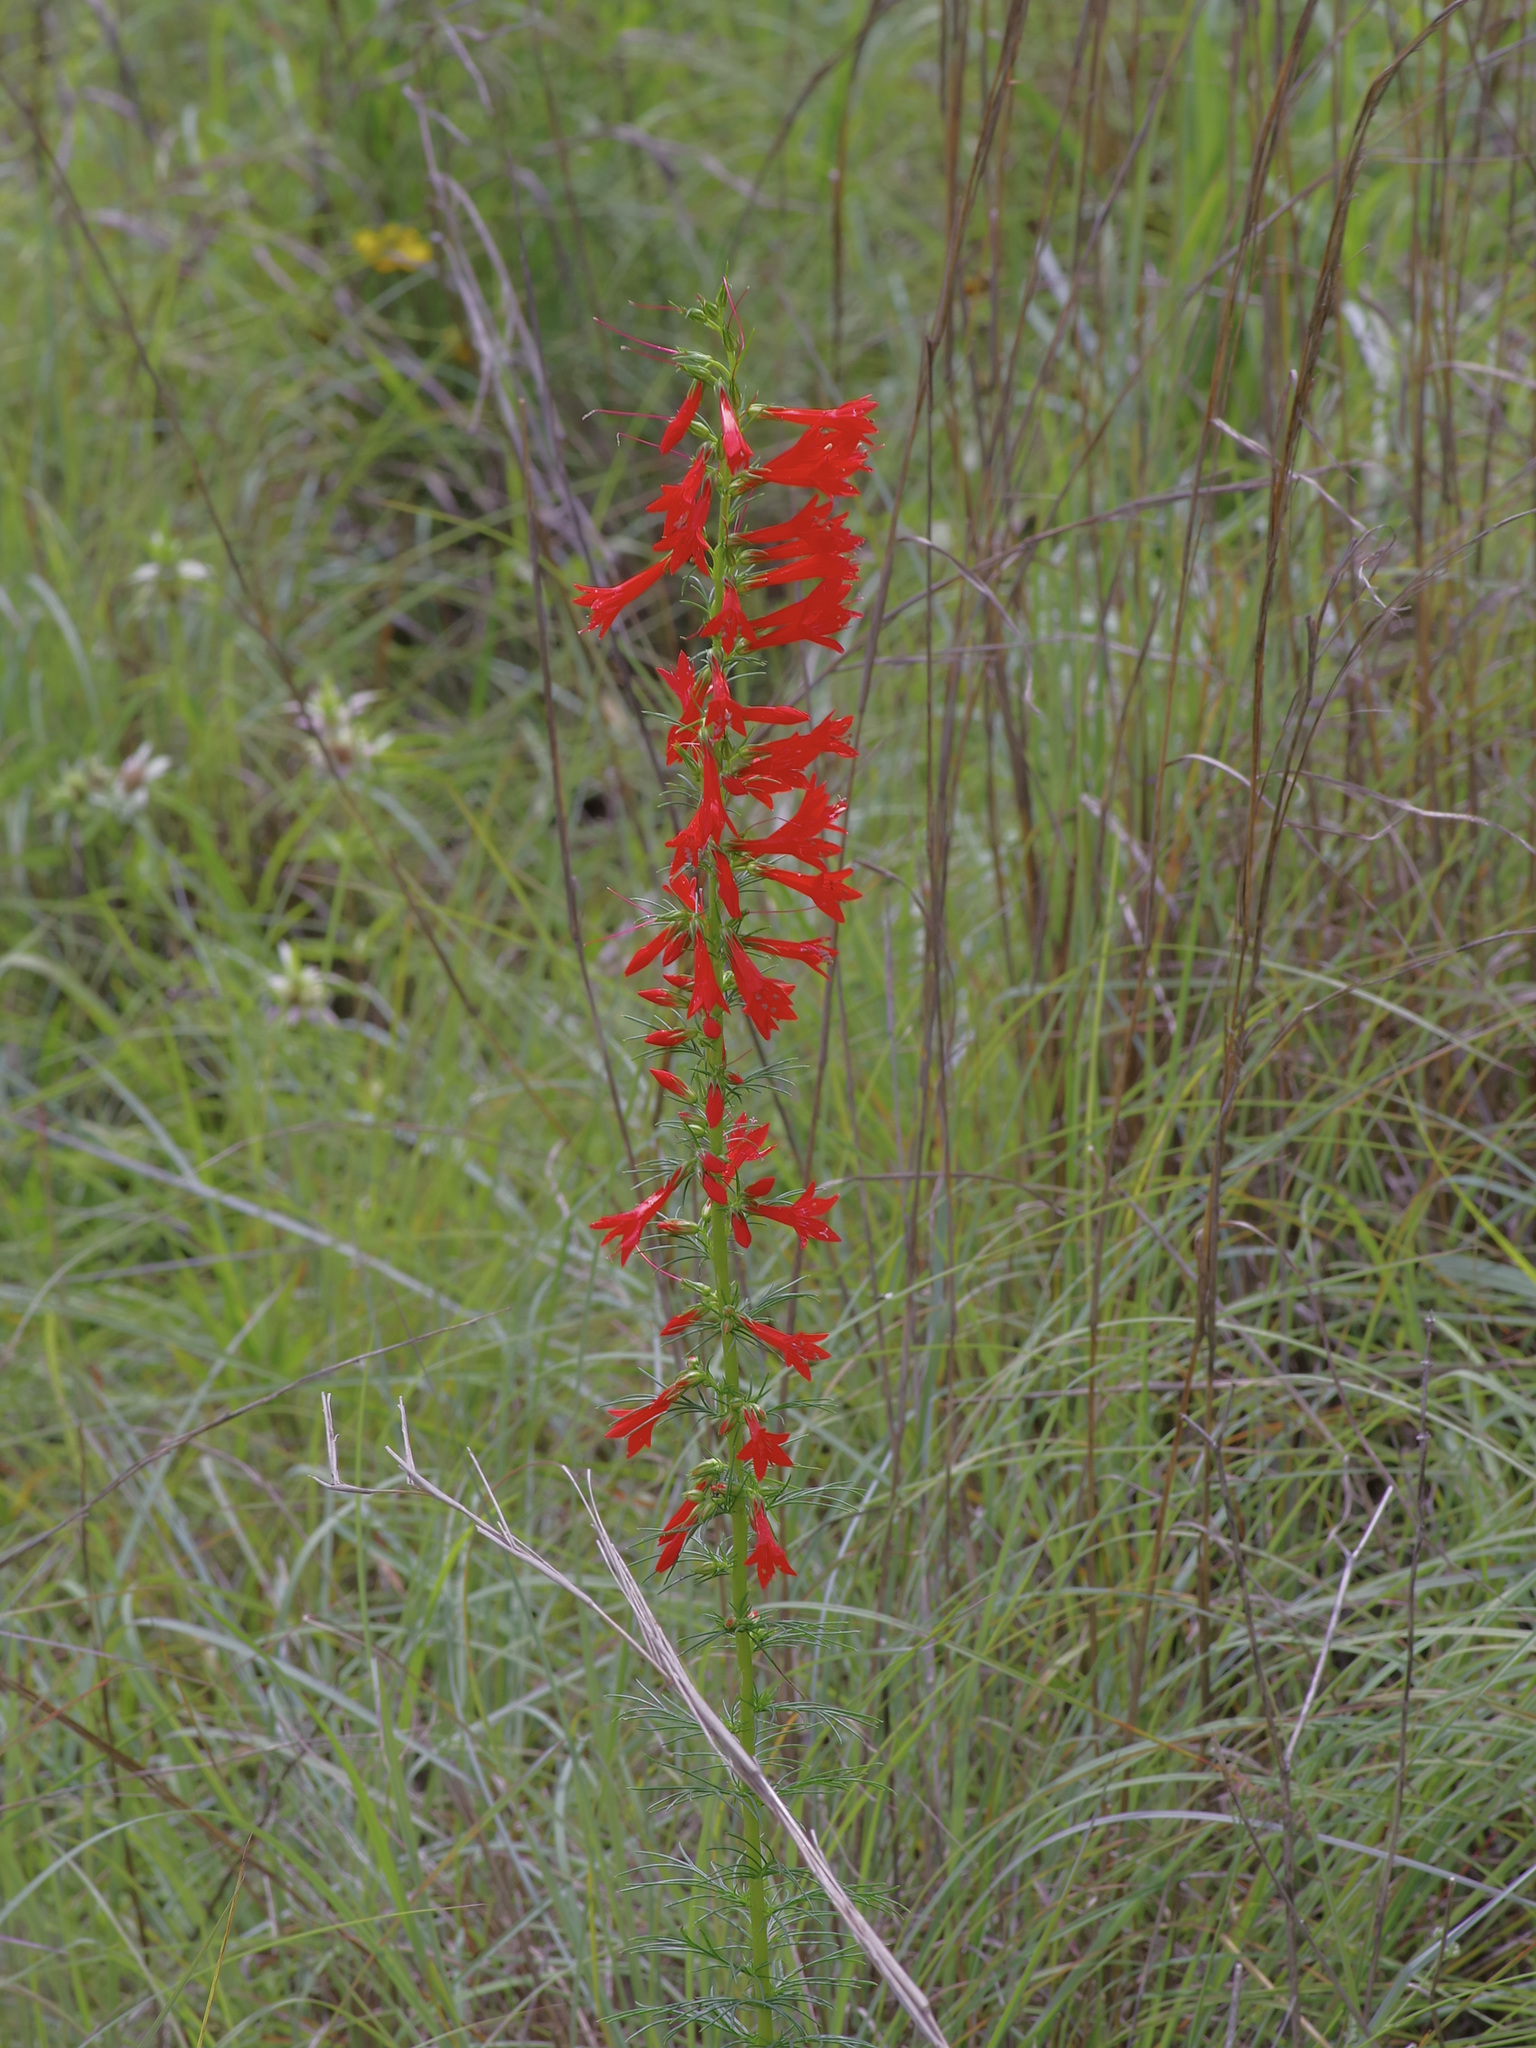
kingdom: Plantae
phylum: Tracheophyta
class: Magnoliopsida
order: Ericales
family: Polemoniaceae
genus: Ipomopsis
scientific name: Ipomopsis rubra
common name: Skyrocket
